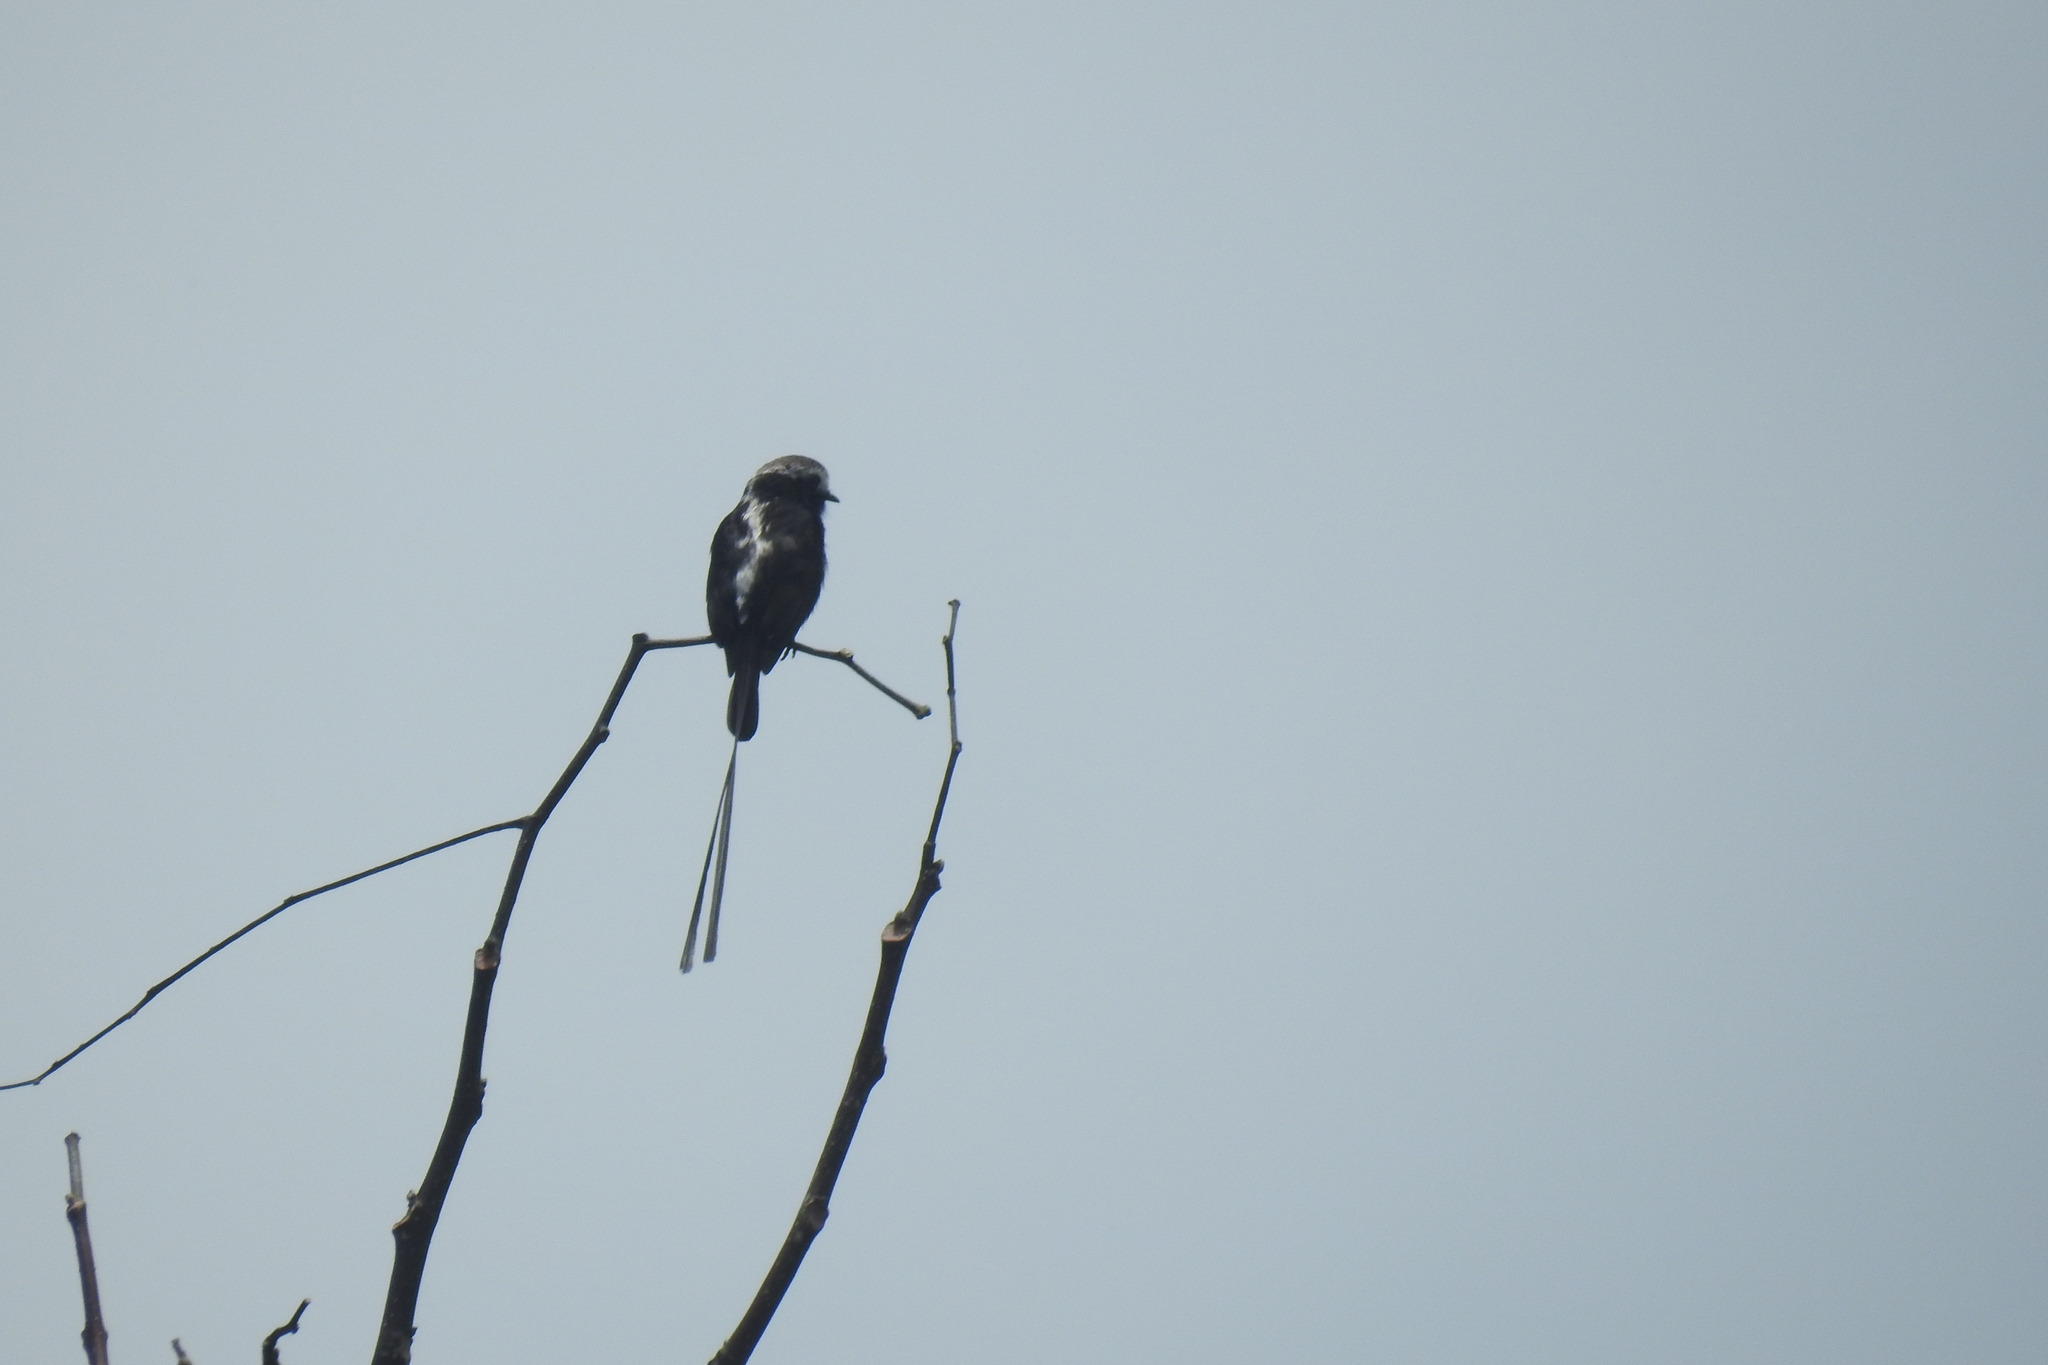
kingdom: Animalia
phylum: Chordata
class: Aves
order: Passeriformes
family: Tyrannidae
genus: Colonia
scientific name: Colonia colonus
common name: Long-tailed tyrant
